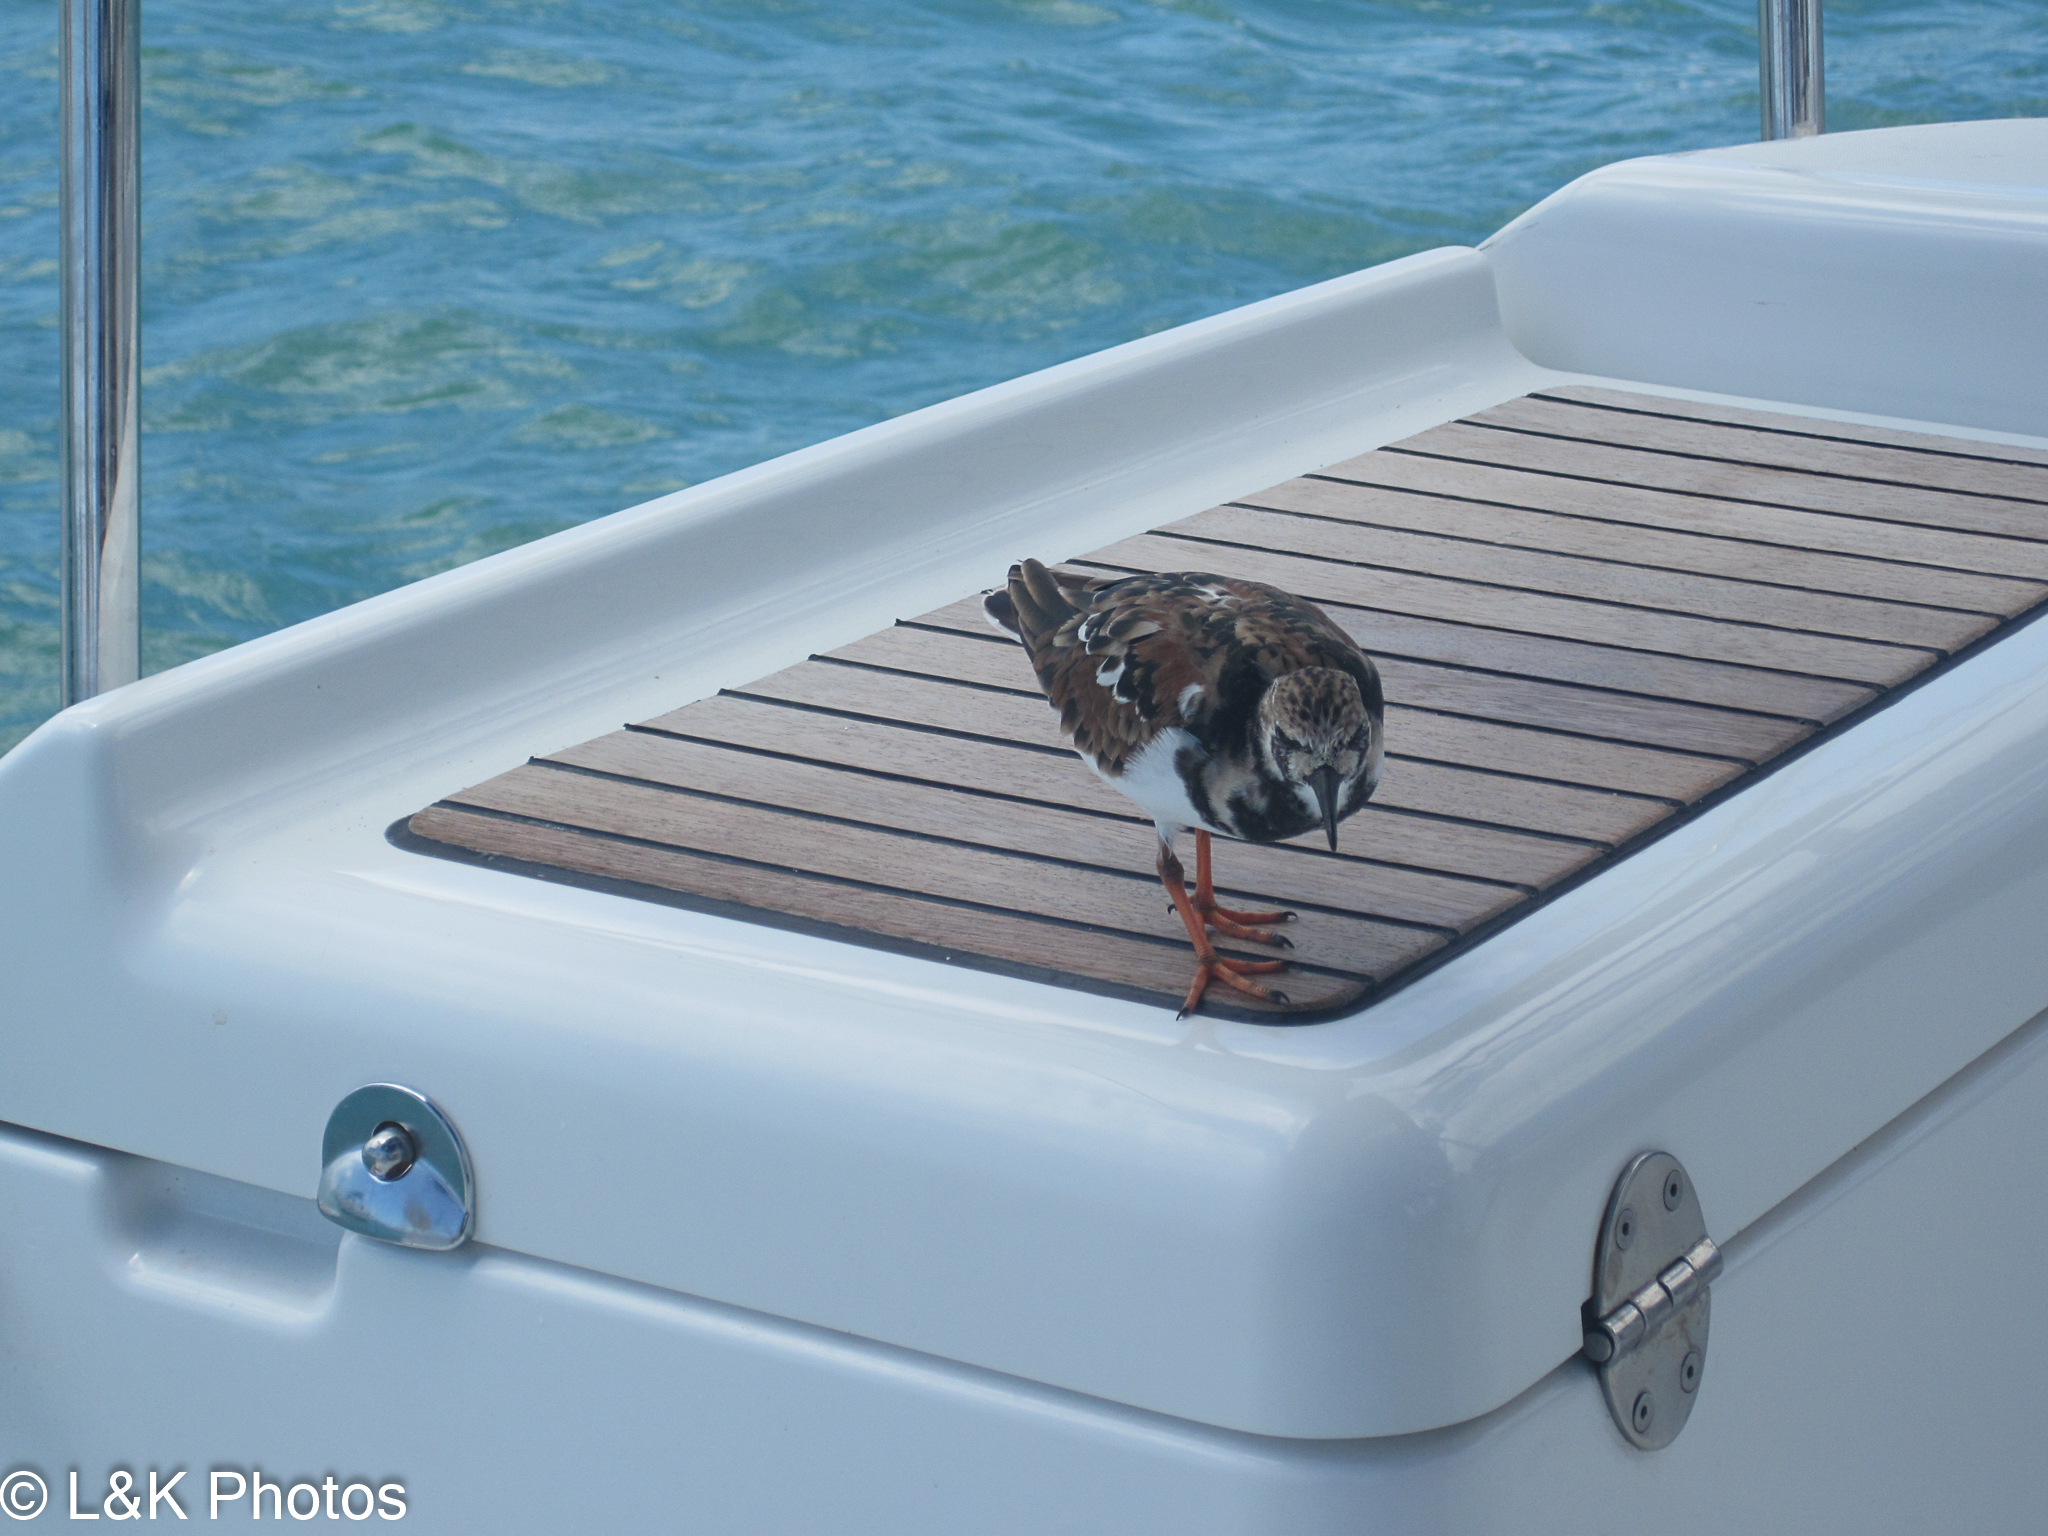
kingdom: Animalia
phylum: Chordata
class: Aves
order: Charadriiformes
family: Scolopacidae
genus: Arenaria
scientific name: Arenaria interpres
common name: Ruddy turnstone
